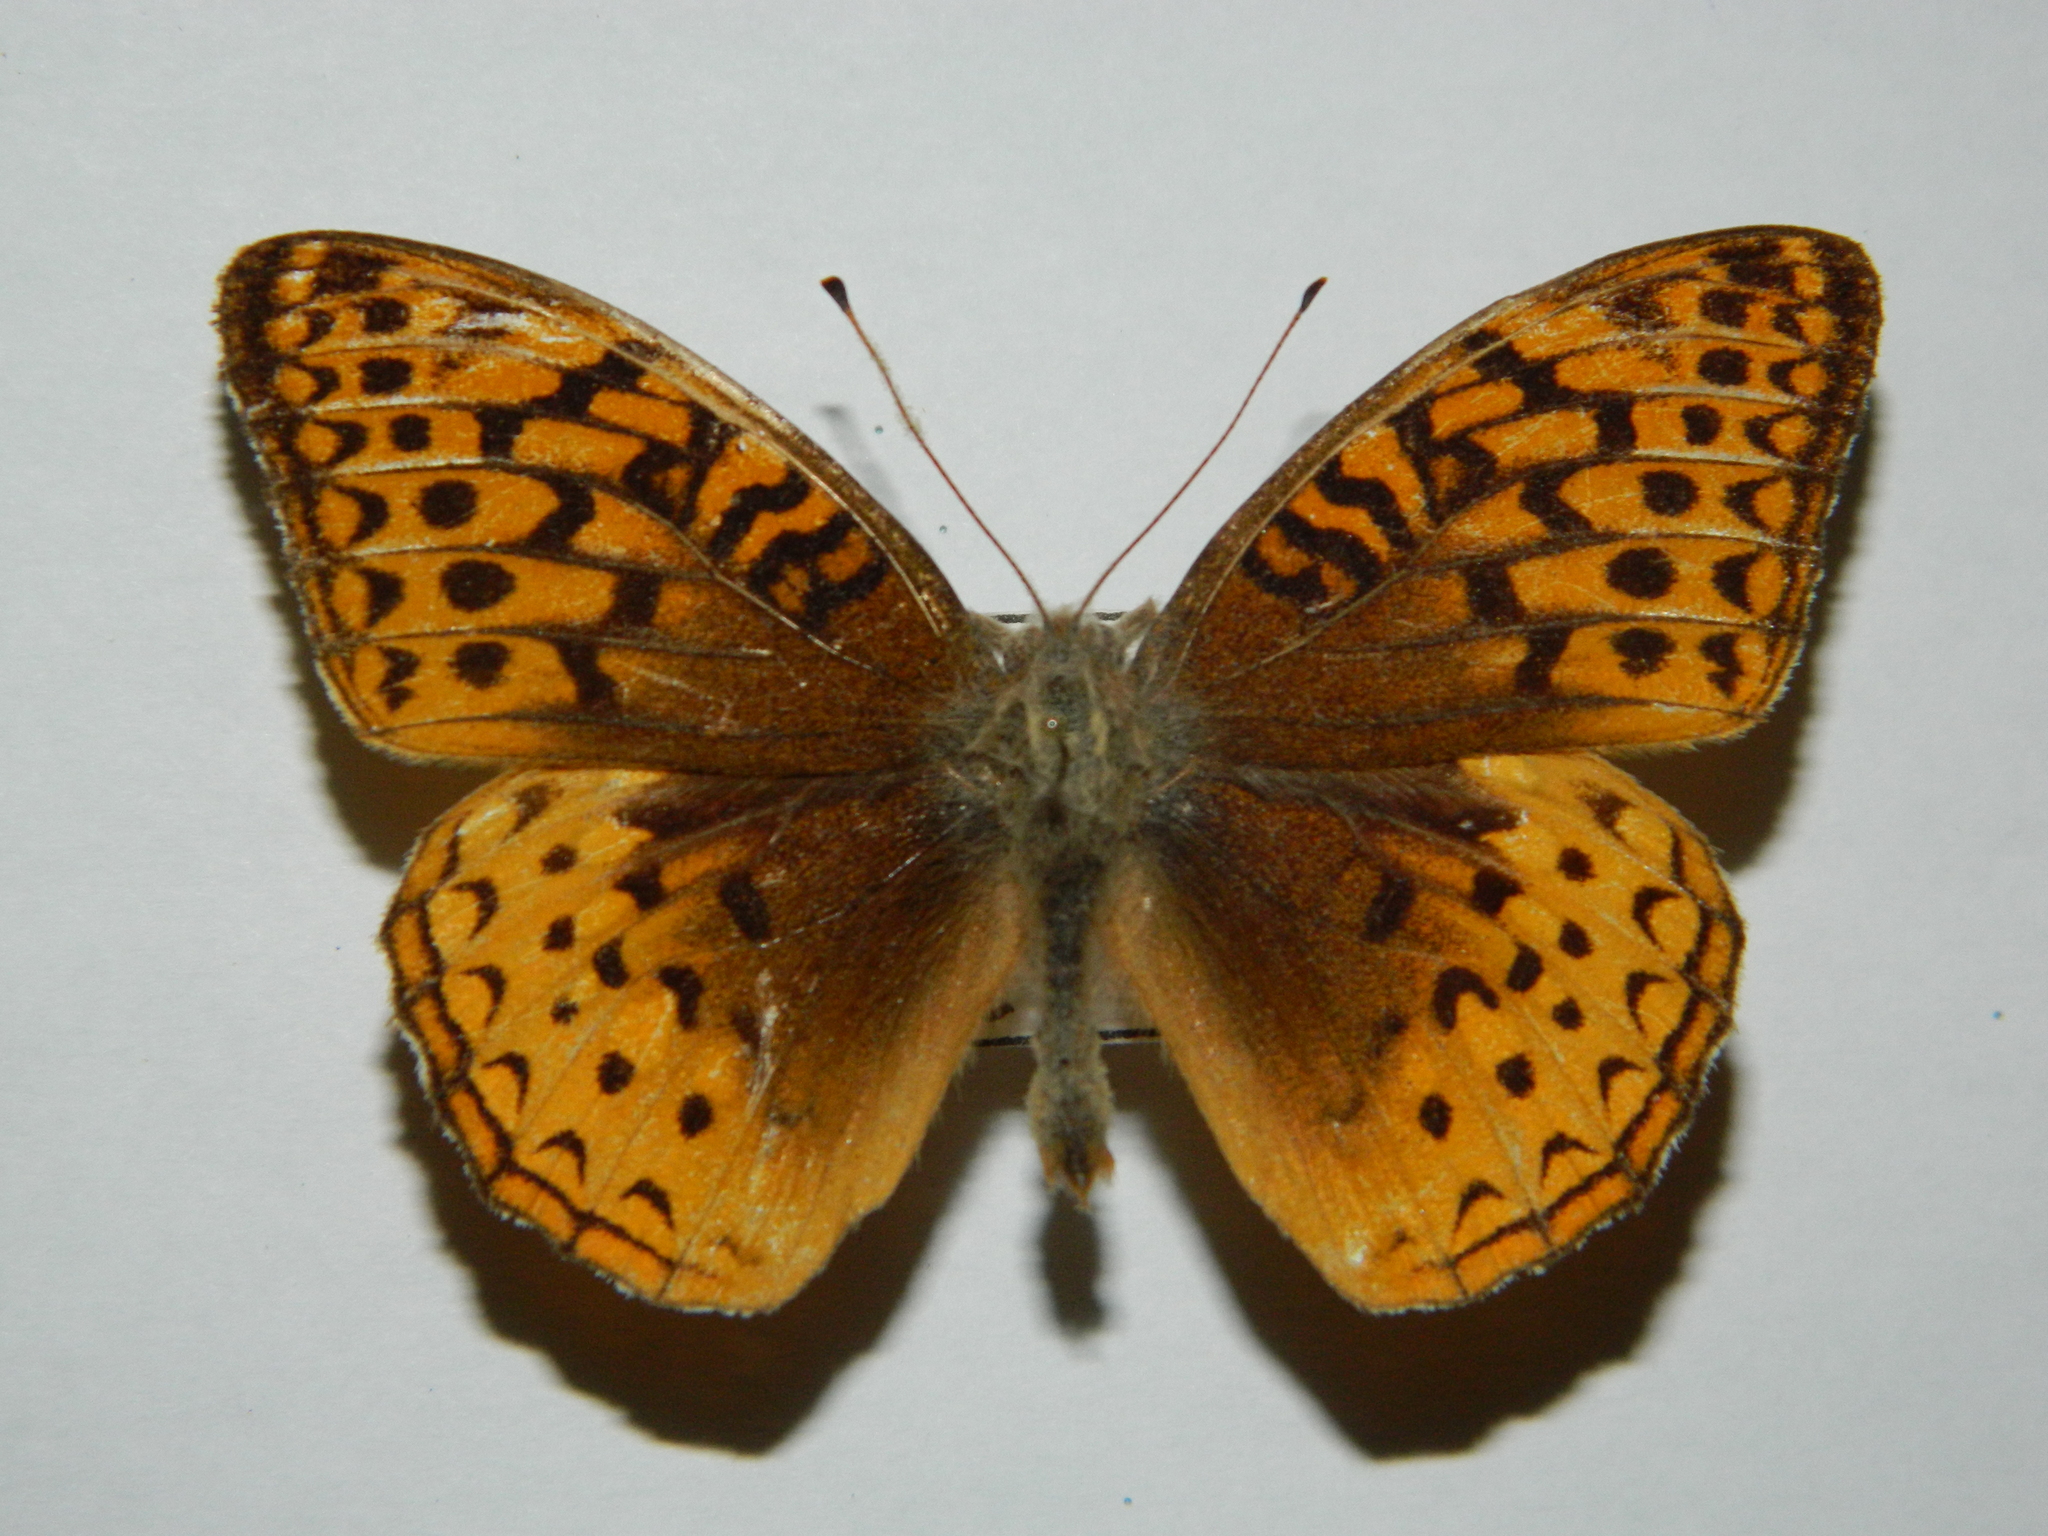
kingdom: Animalia
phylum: Arthropoda
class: Insecta
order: Lepidoptera
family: Nymphalidae
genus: Speyeria
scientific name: Speyeria cybele
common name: Great spangled fritillary
